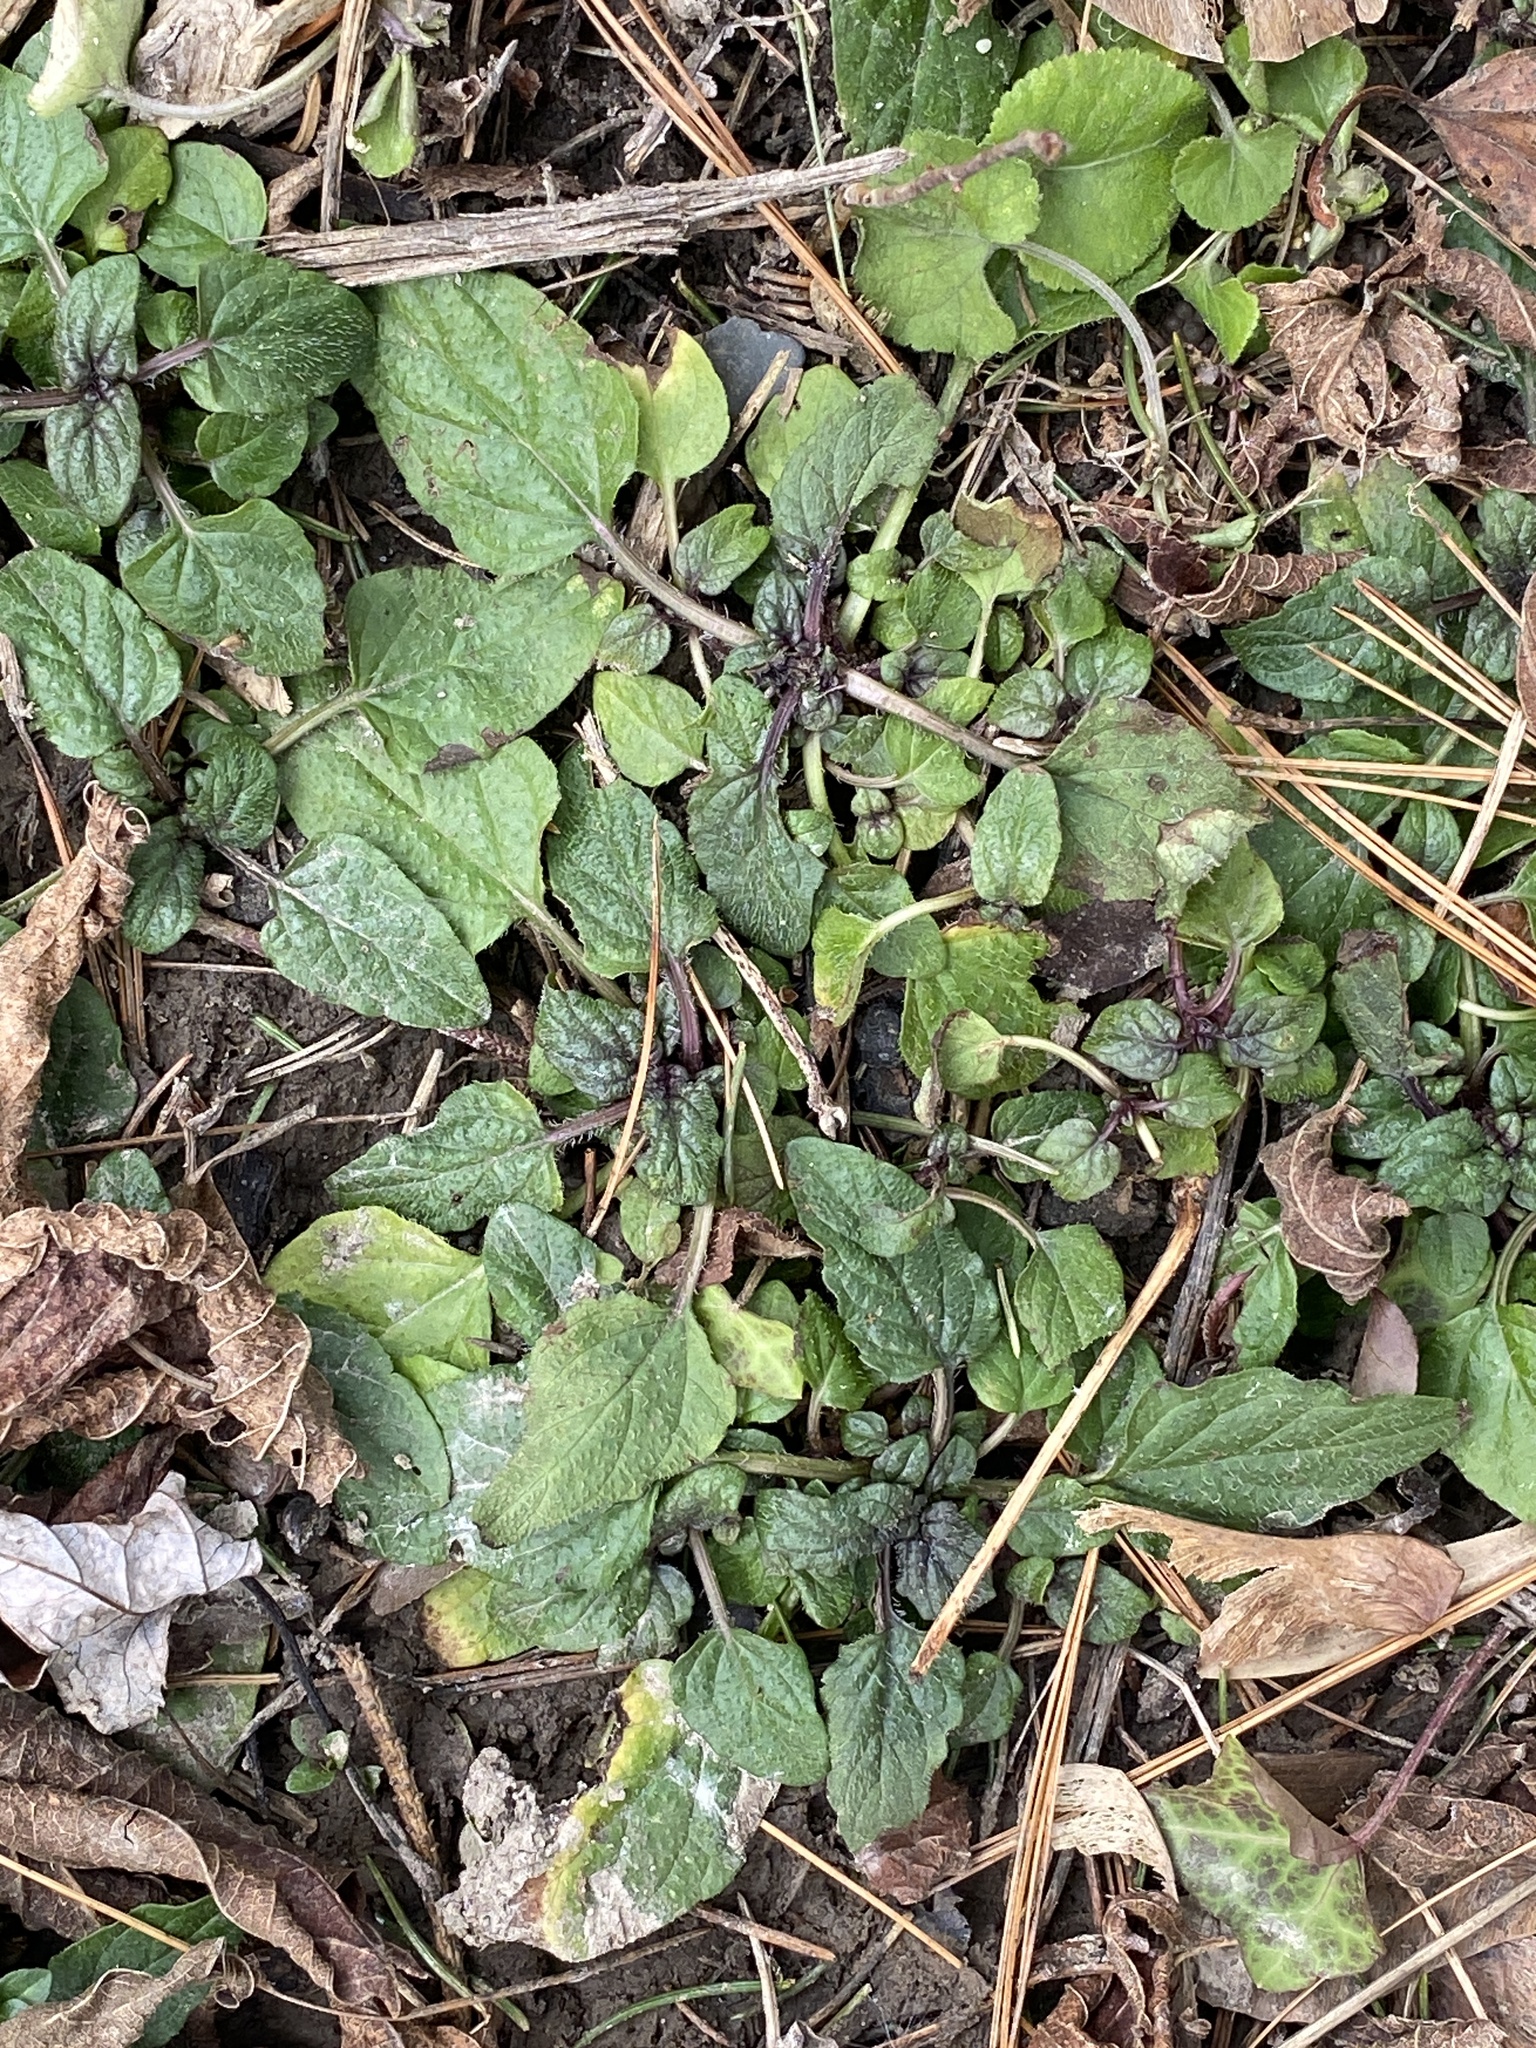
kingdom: Plantae
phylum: Tracheophyta
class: Magnoliopsida
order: Lamiales
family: Lamiaceae
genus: Prunella
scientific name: Prunella vulgaris
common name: Heal-all
